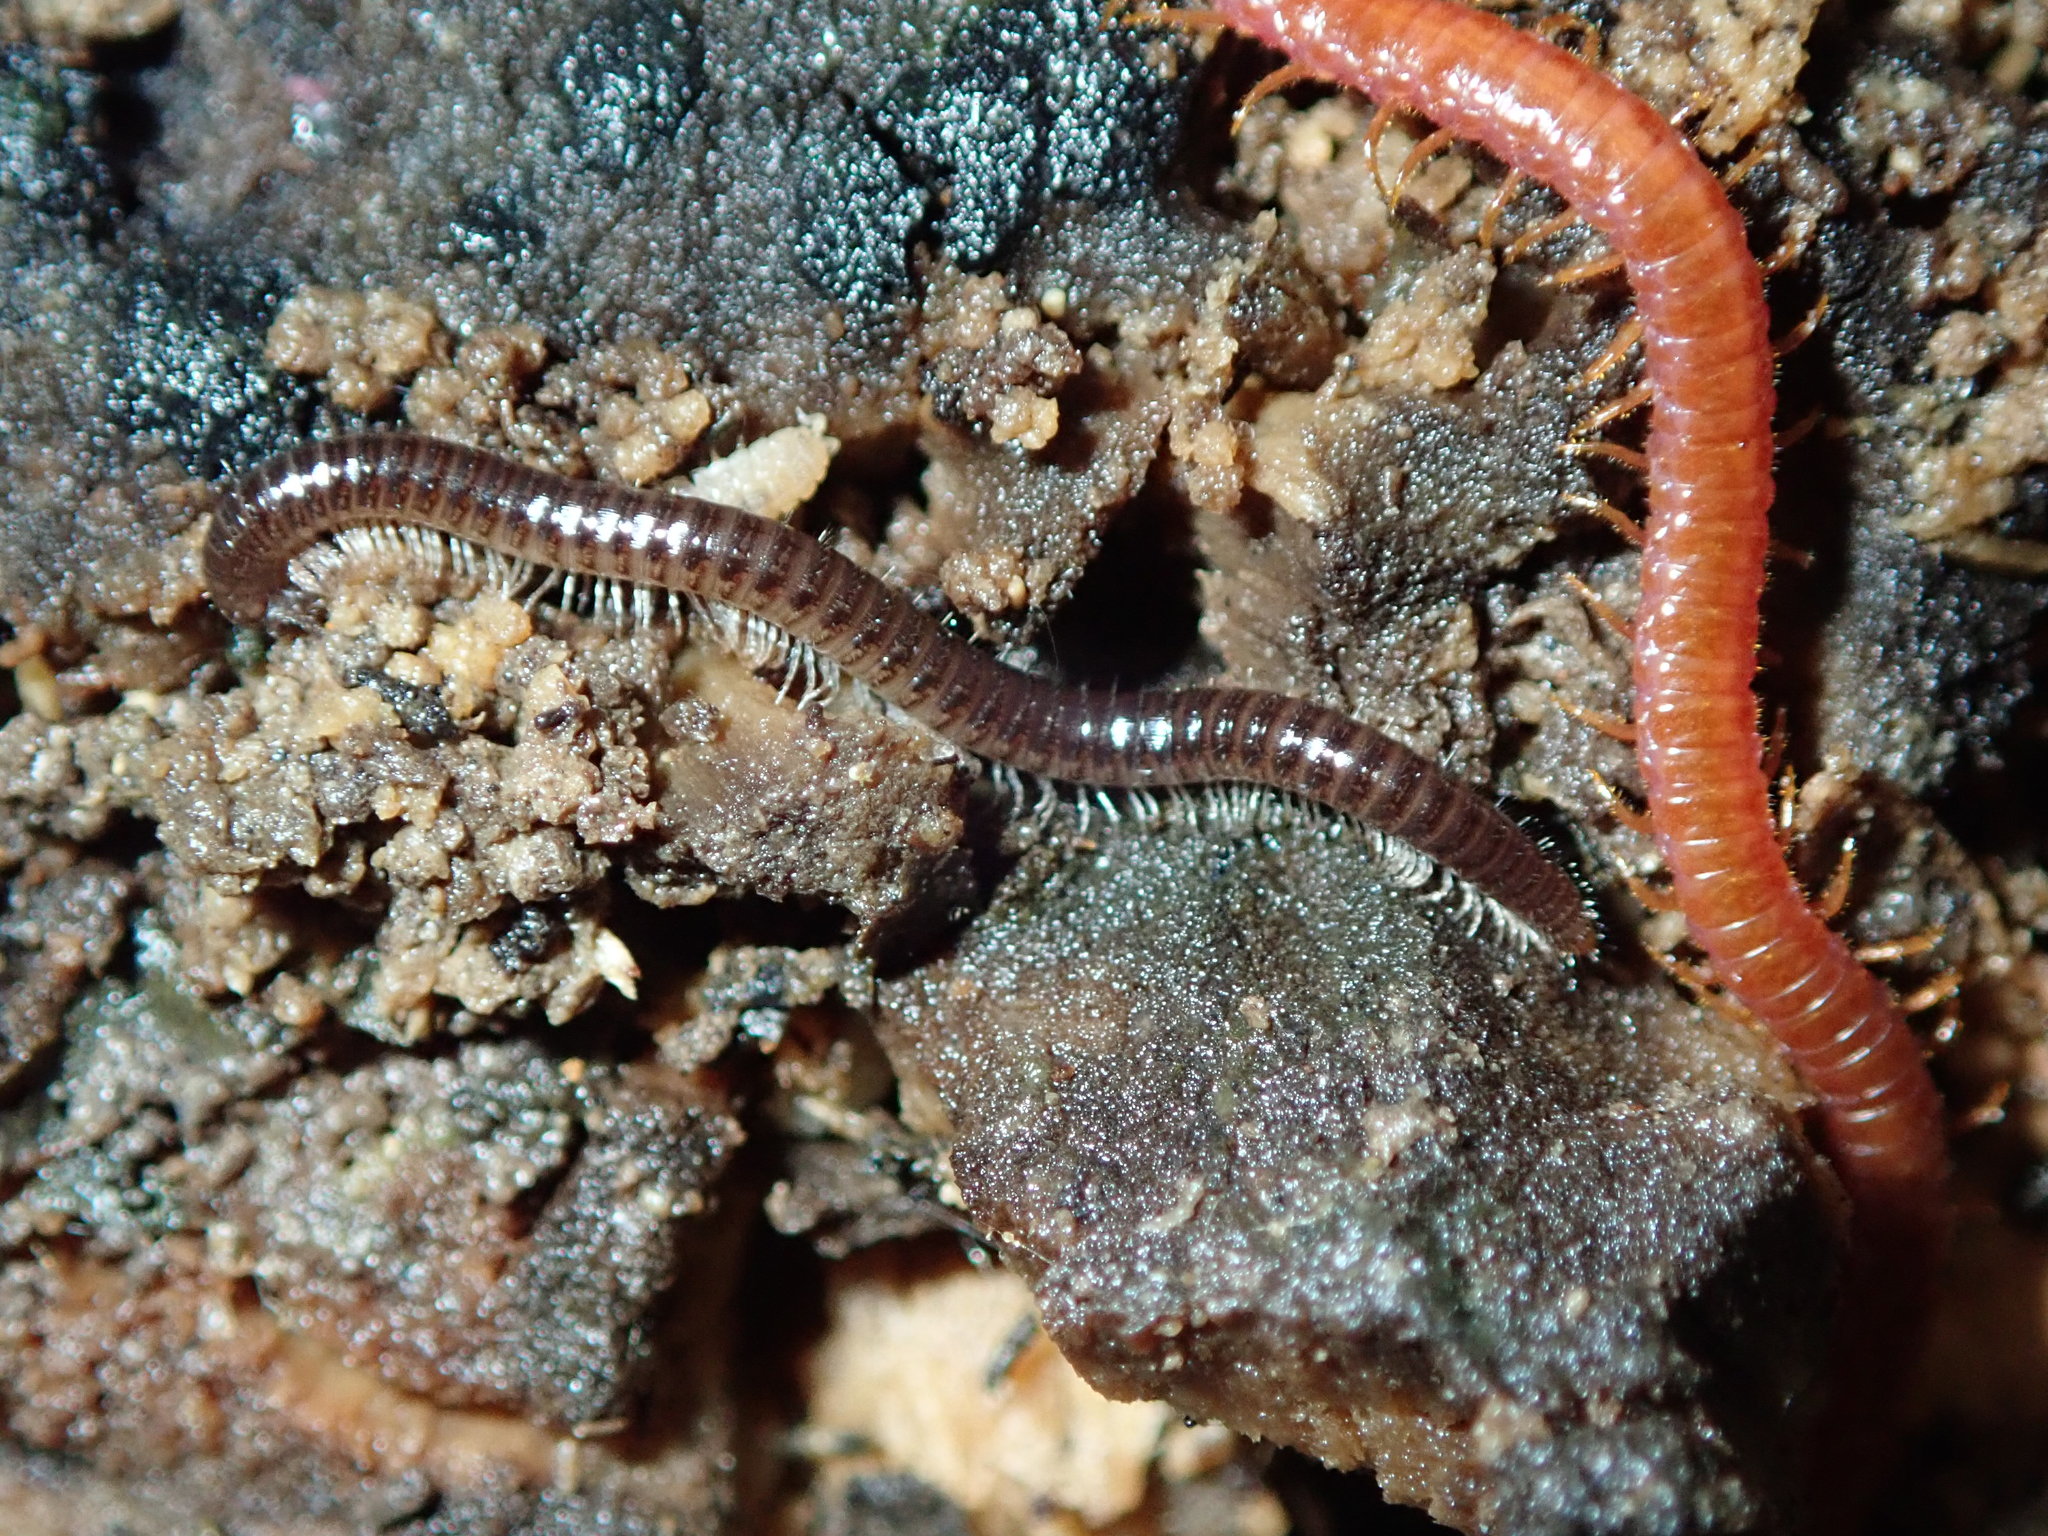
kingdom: Animalia
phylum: Arthropoda
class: Diplopoda
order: Julida
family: Julidae
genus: Ophyiulus
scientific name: Ophyiulus pilosus
